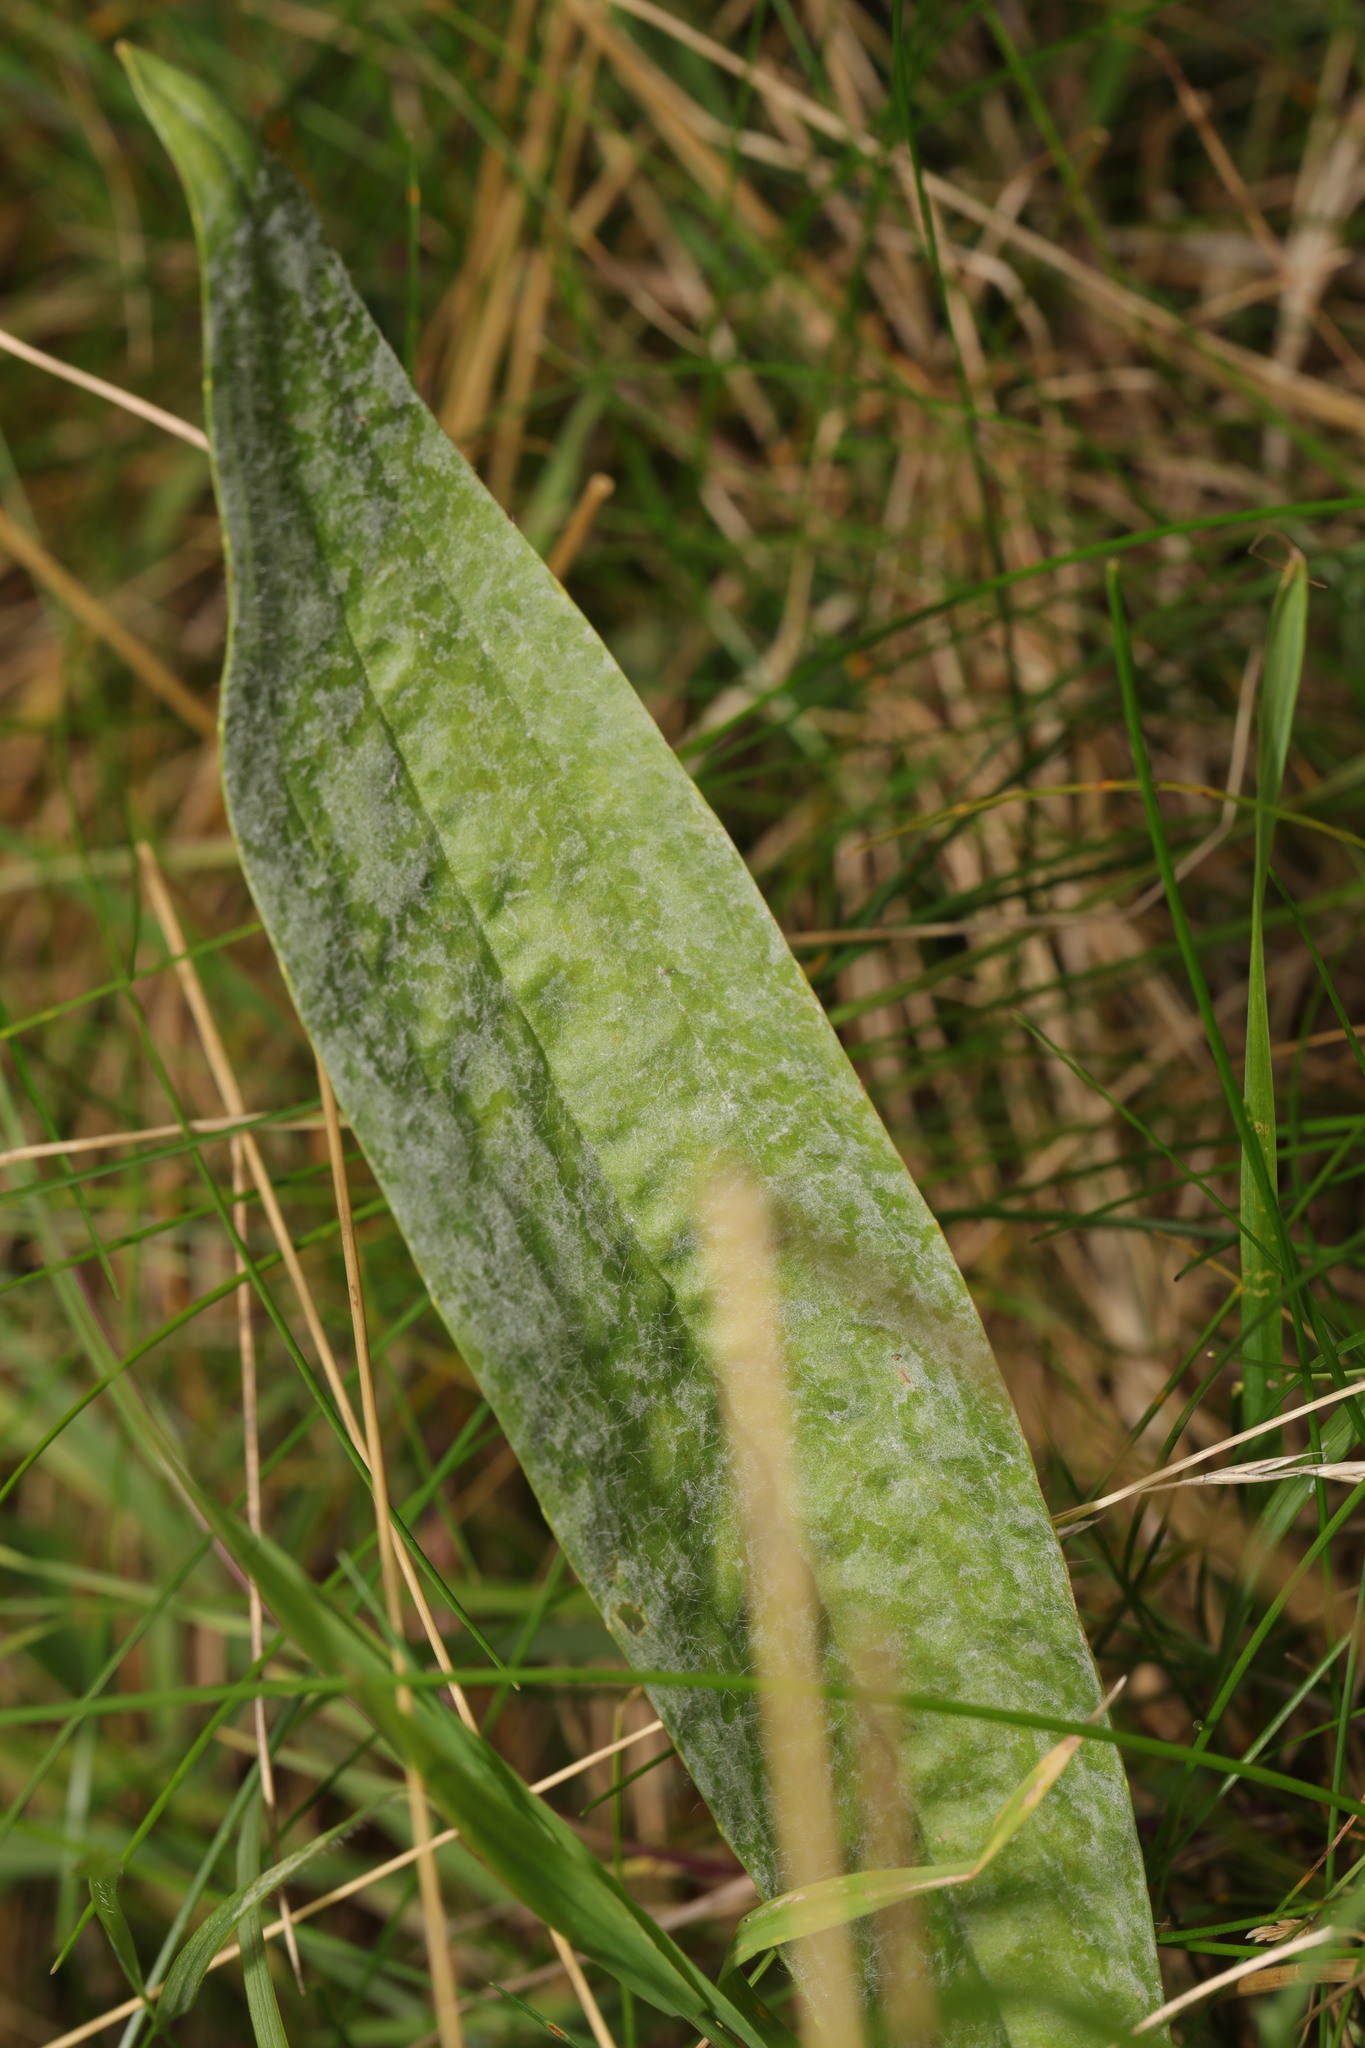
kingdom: Plantae
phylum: Tracheophyta
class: Magnoliopsida
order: Lamiales
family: Plantaginaceae
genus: Plantago
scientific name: Plantago lanceolata
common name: Ribwort plantain
